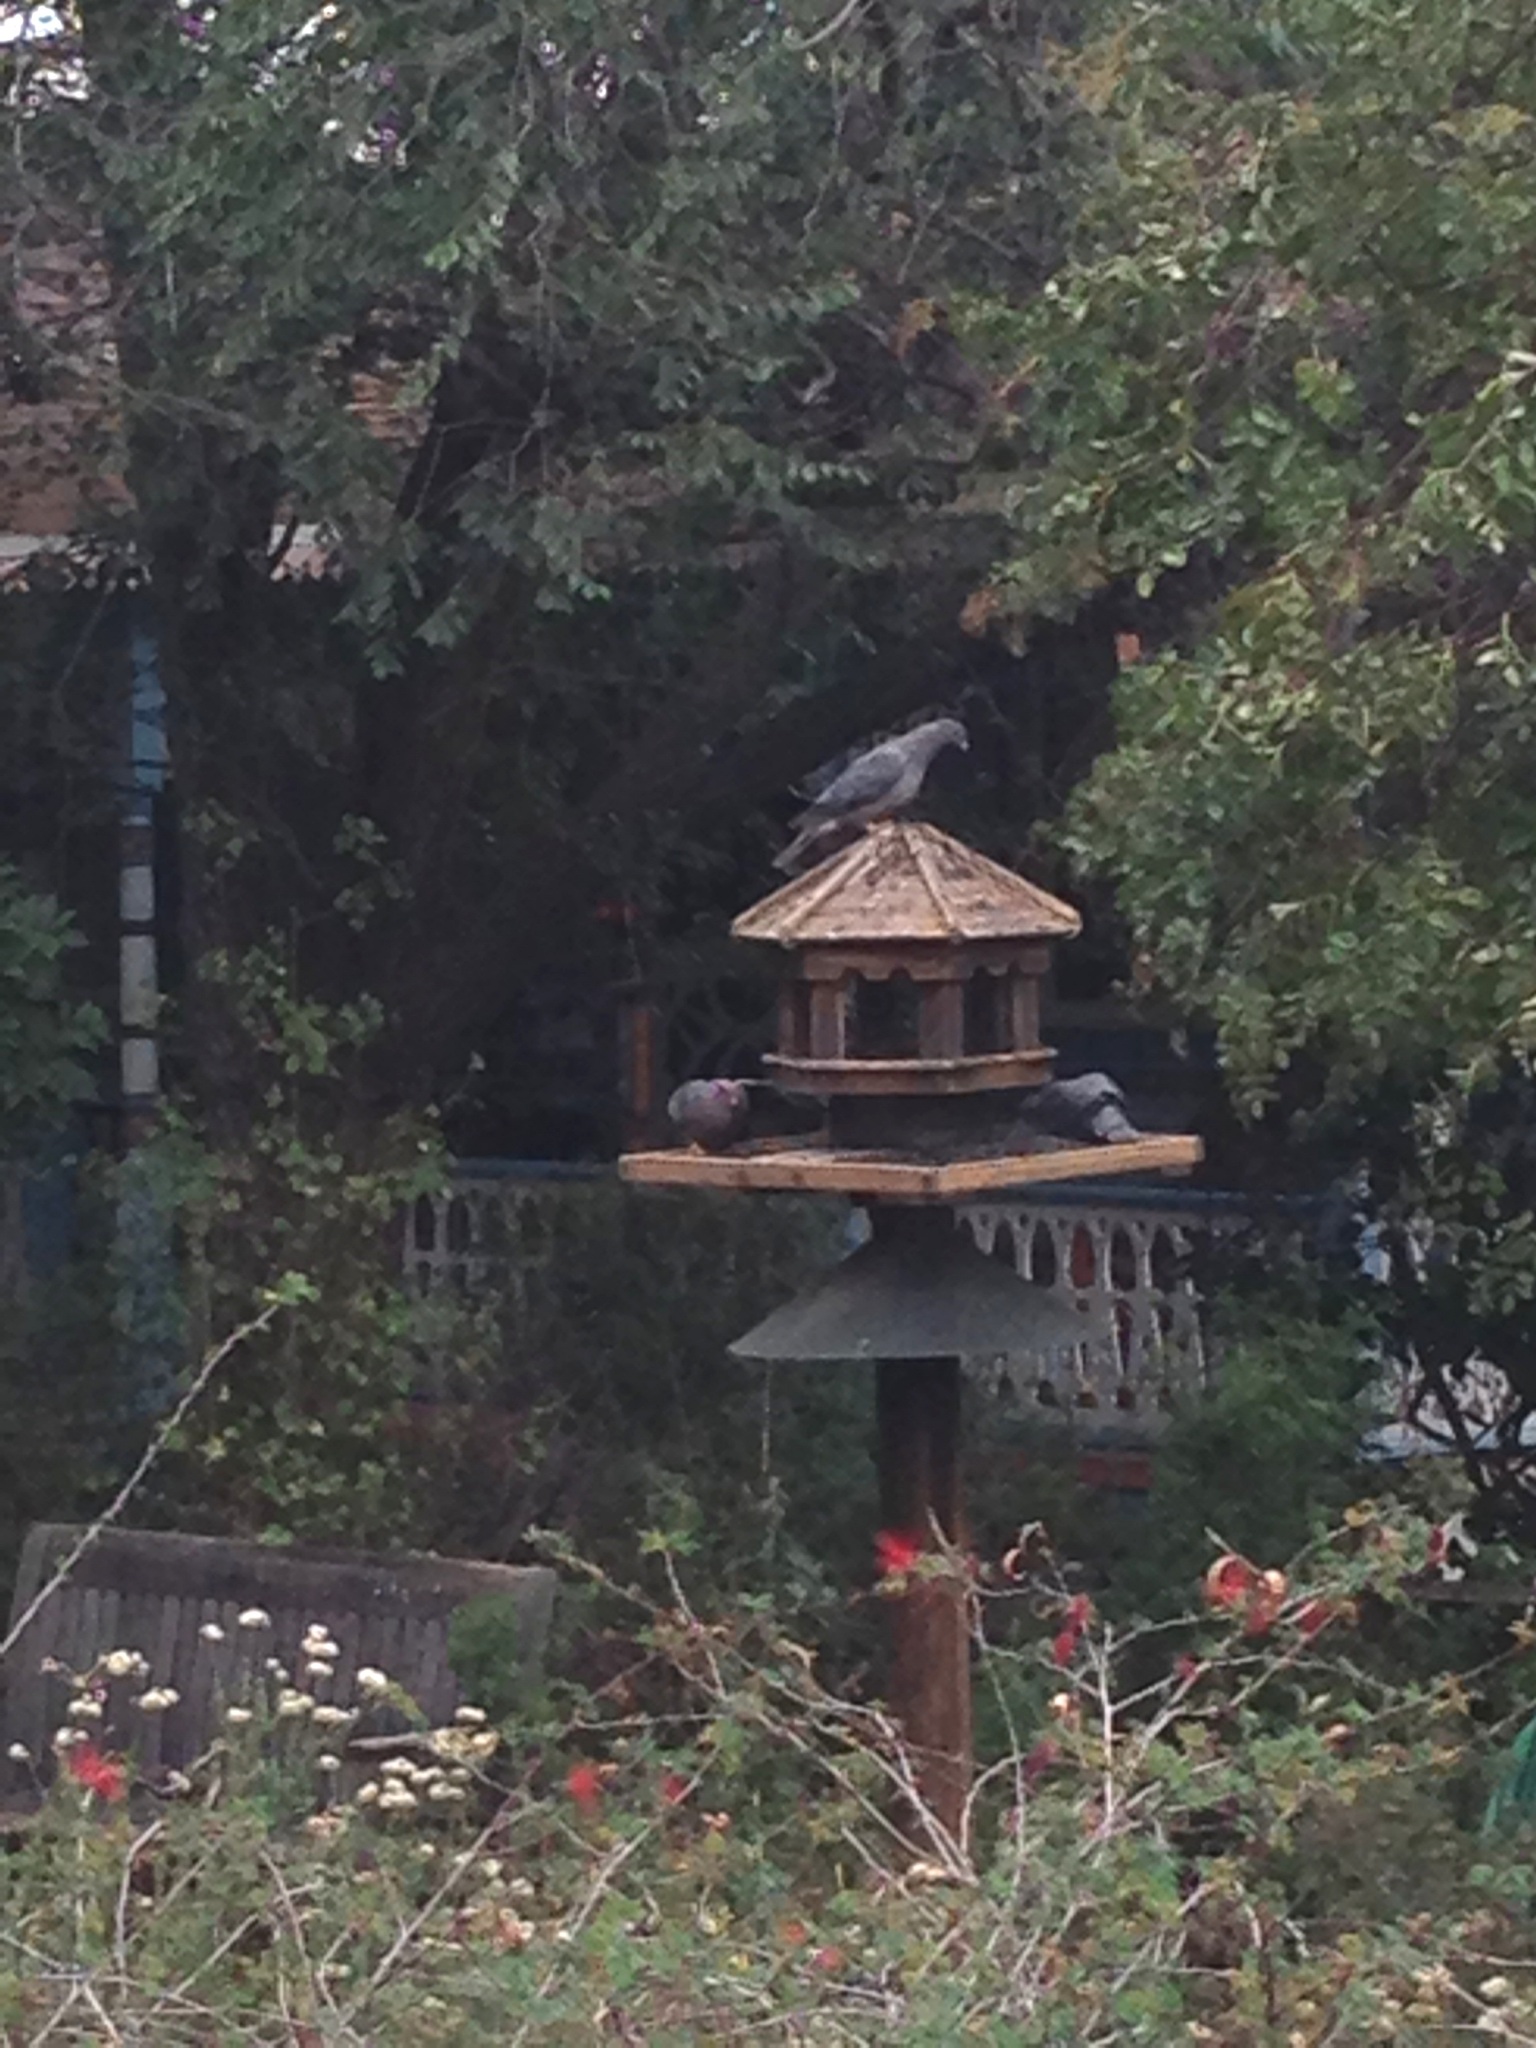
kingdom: Animalia
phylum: Chordata
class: Aves
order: Columbiformes
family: Columbidae
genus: Patagioenas
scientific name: Patagioenas fasciata
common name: Band-tailed pigeon
